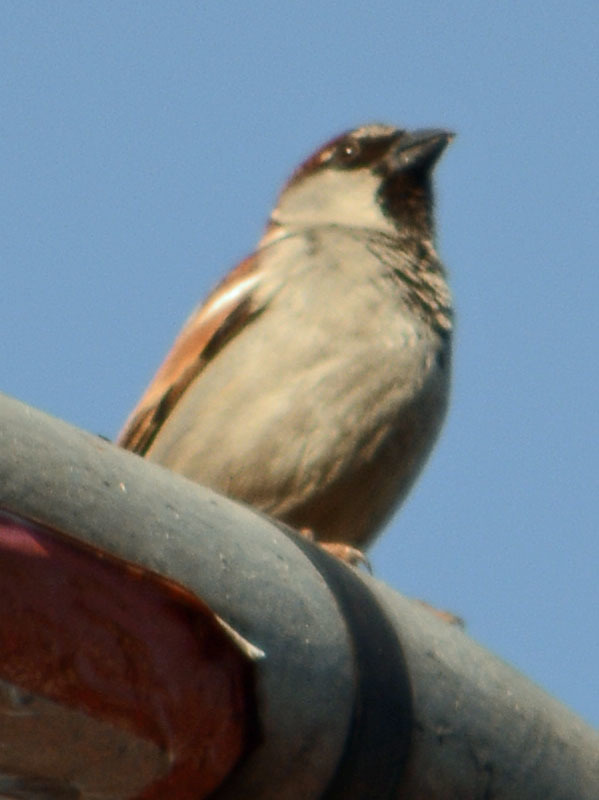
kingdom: Animalia
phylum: Chordata
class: Aves
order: Passeriformes
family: Passeridae
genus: Passer
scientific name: Passer domesticus
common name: House sparrow
